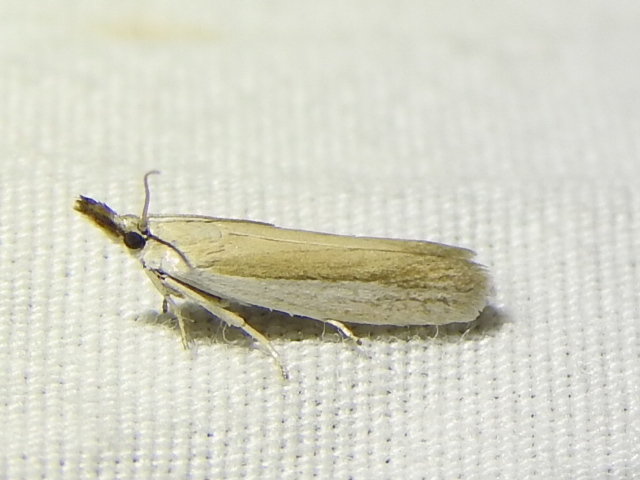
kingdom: Animalia
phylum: Arthropoda
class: Insecta
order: Lepidoptera
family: Pyralidae
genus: Tampa
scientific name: Tampa dimediatella
